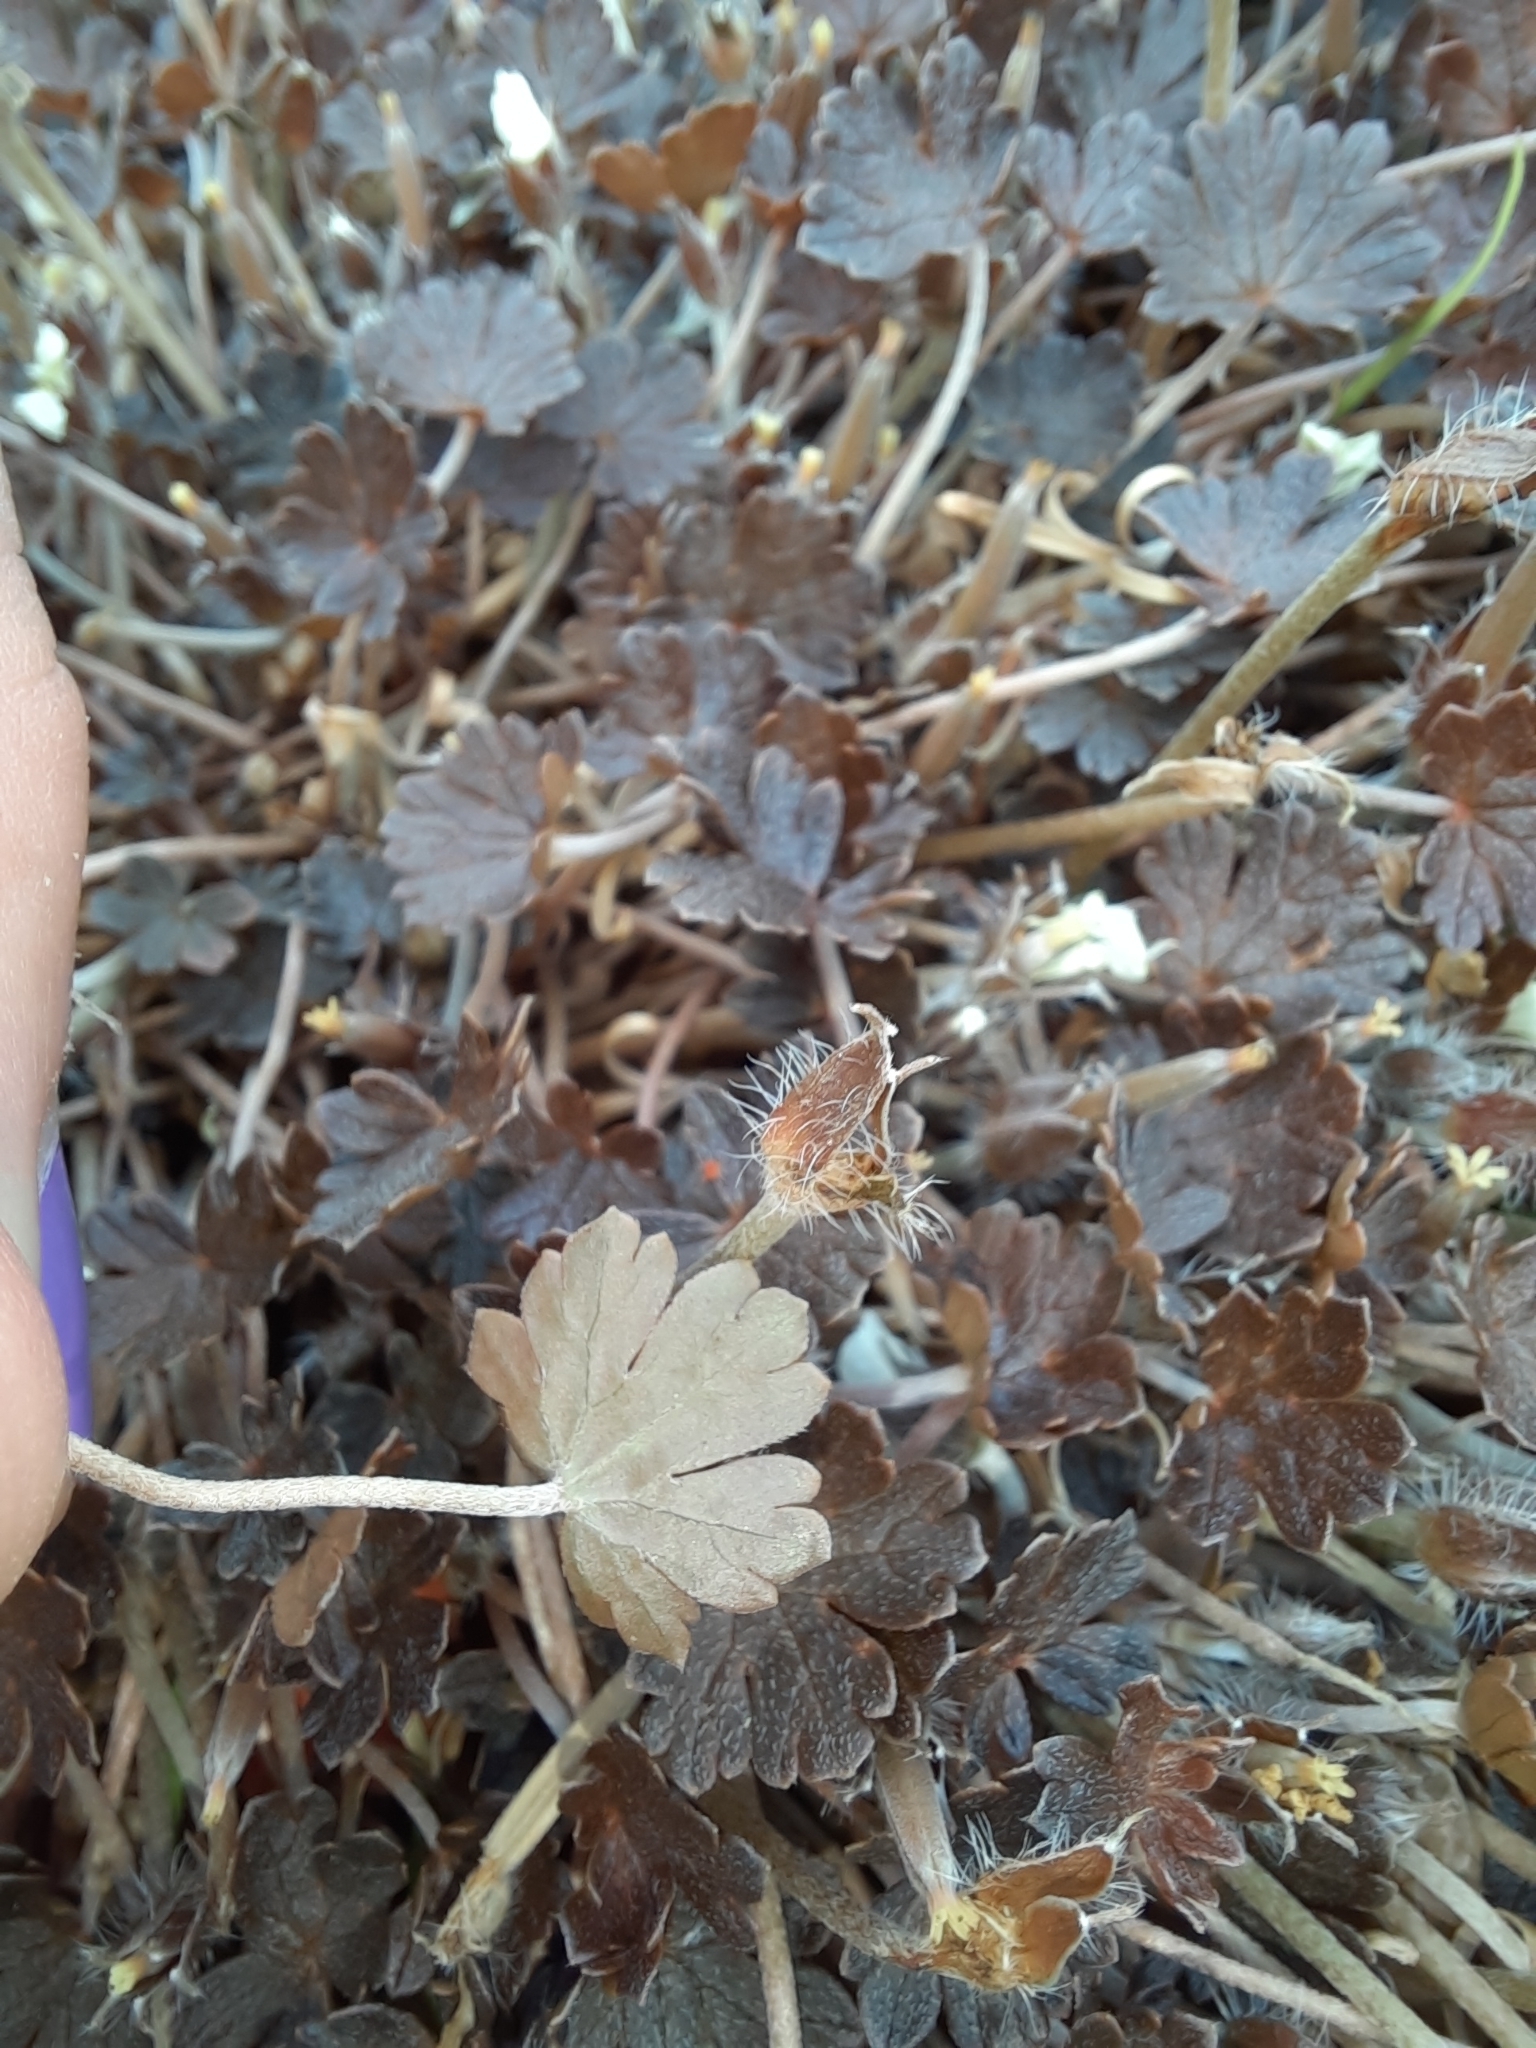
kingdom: Plantae
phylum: Tracheophyta
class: Magnoliopsida
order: Geraniales
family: Geraniaceae
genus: Geranium
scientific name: Geranium brevicaule
